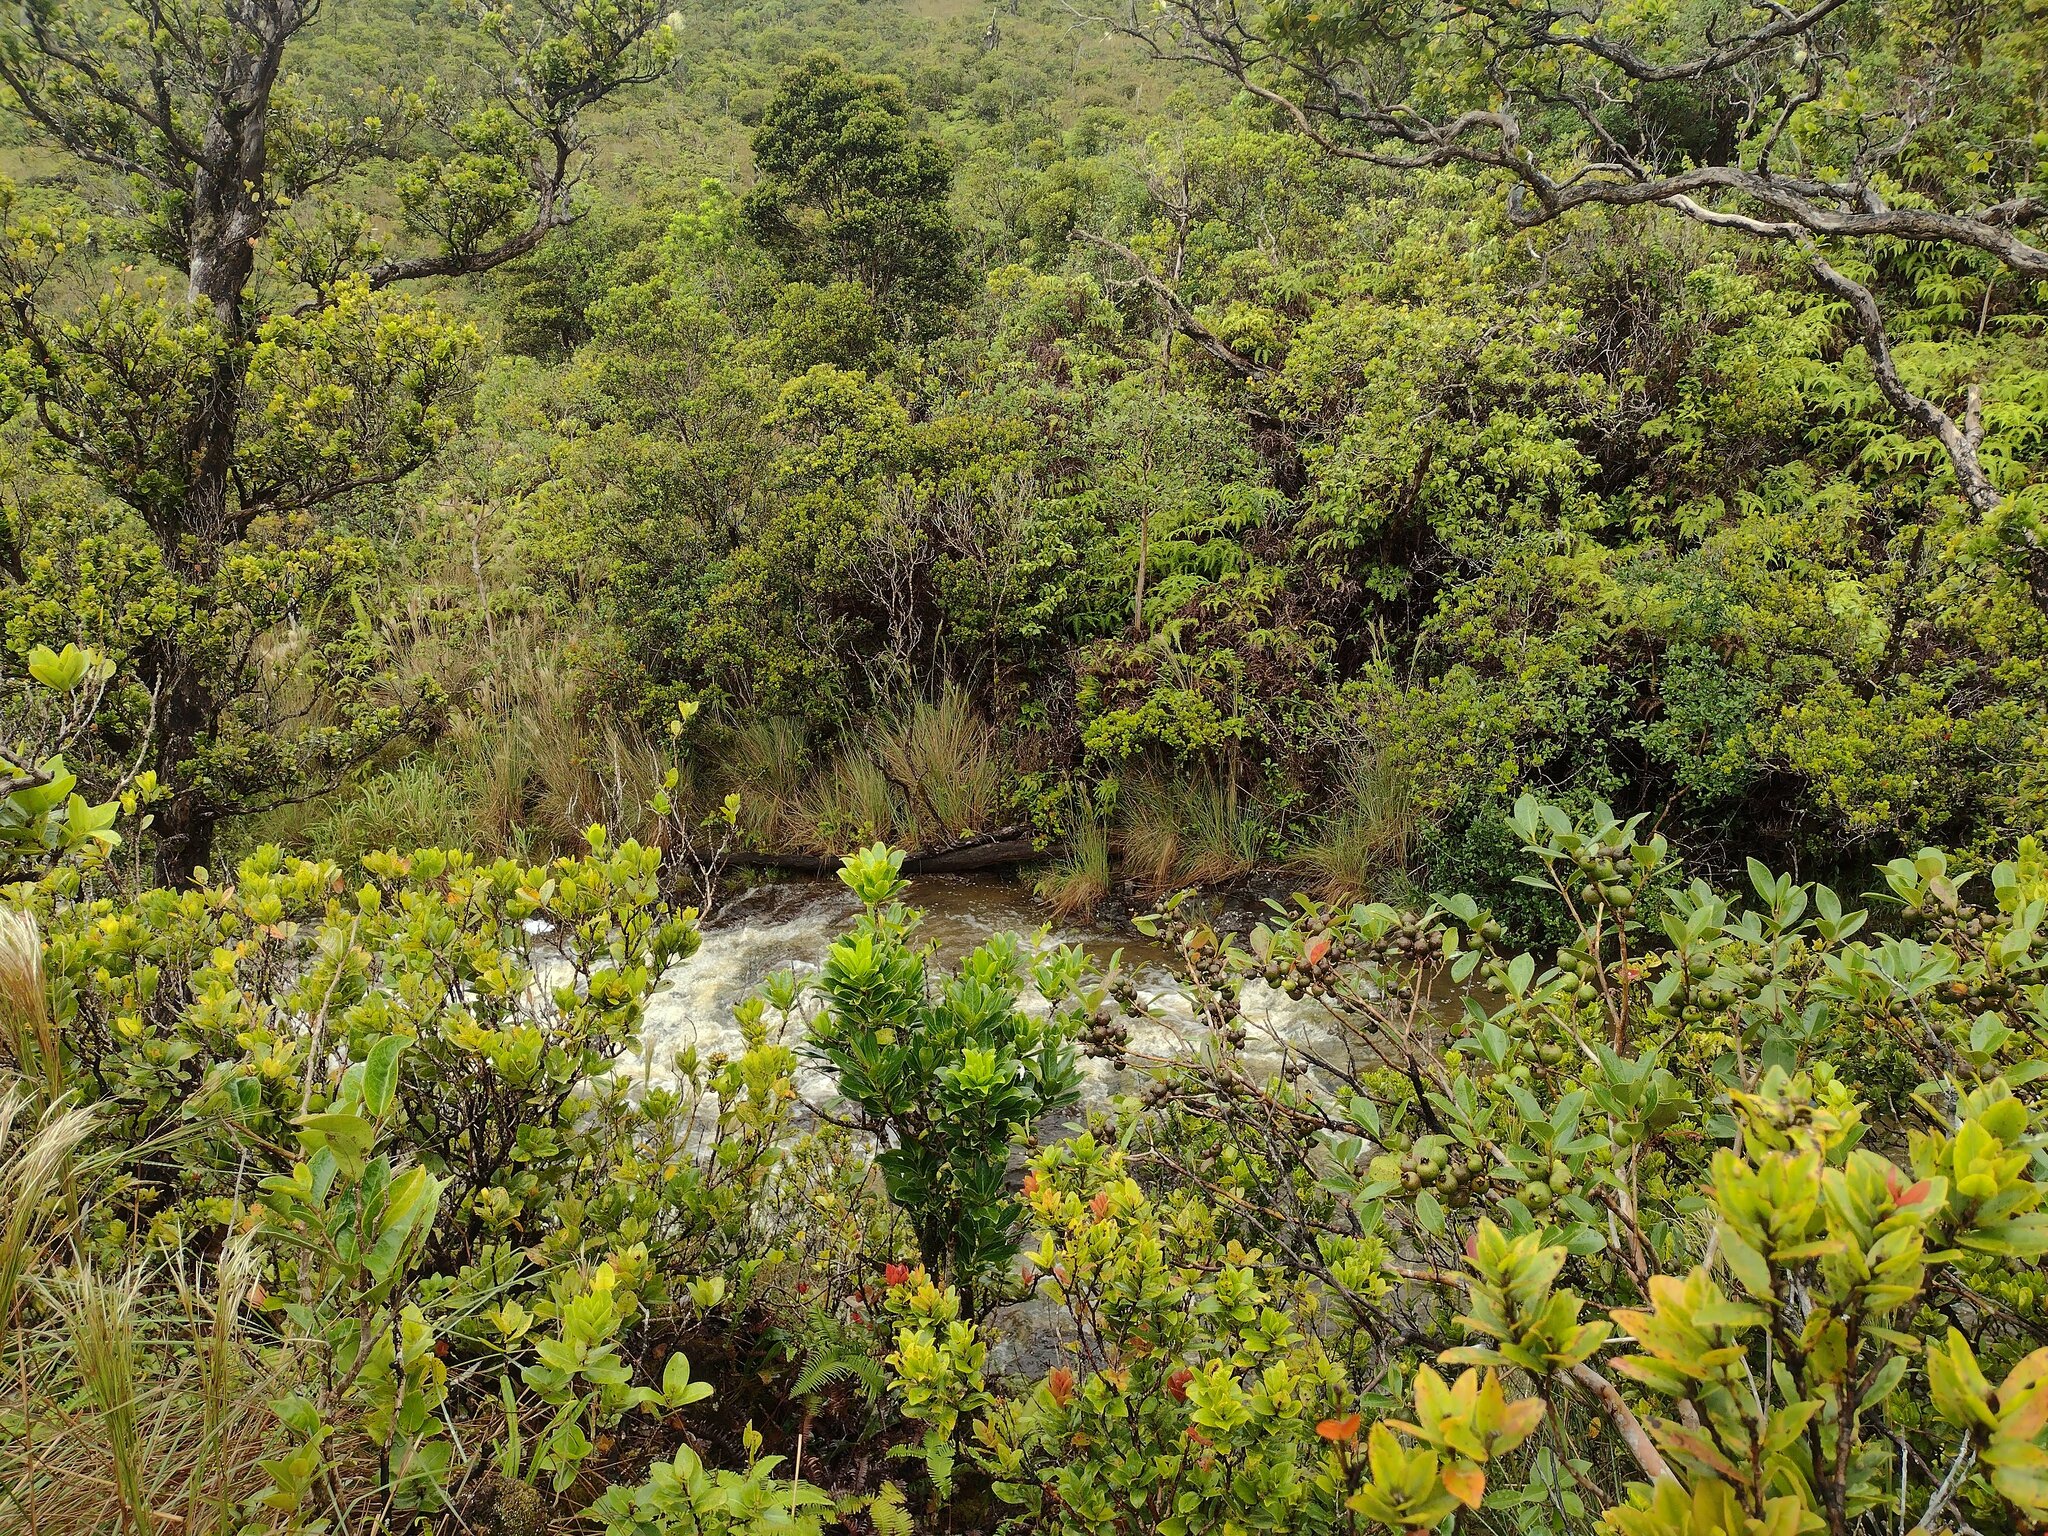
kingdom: Plantae
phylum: Tracheophyta
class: Magnoliopsida
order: Aquifoliales
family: Aquifoliaceae
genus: Ilex
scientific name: Ilex anomala
